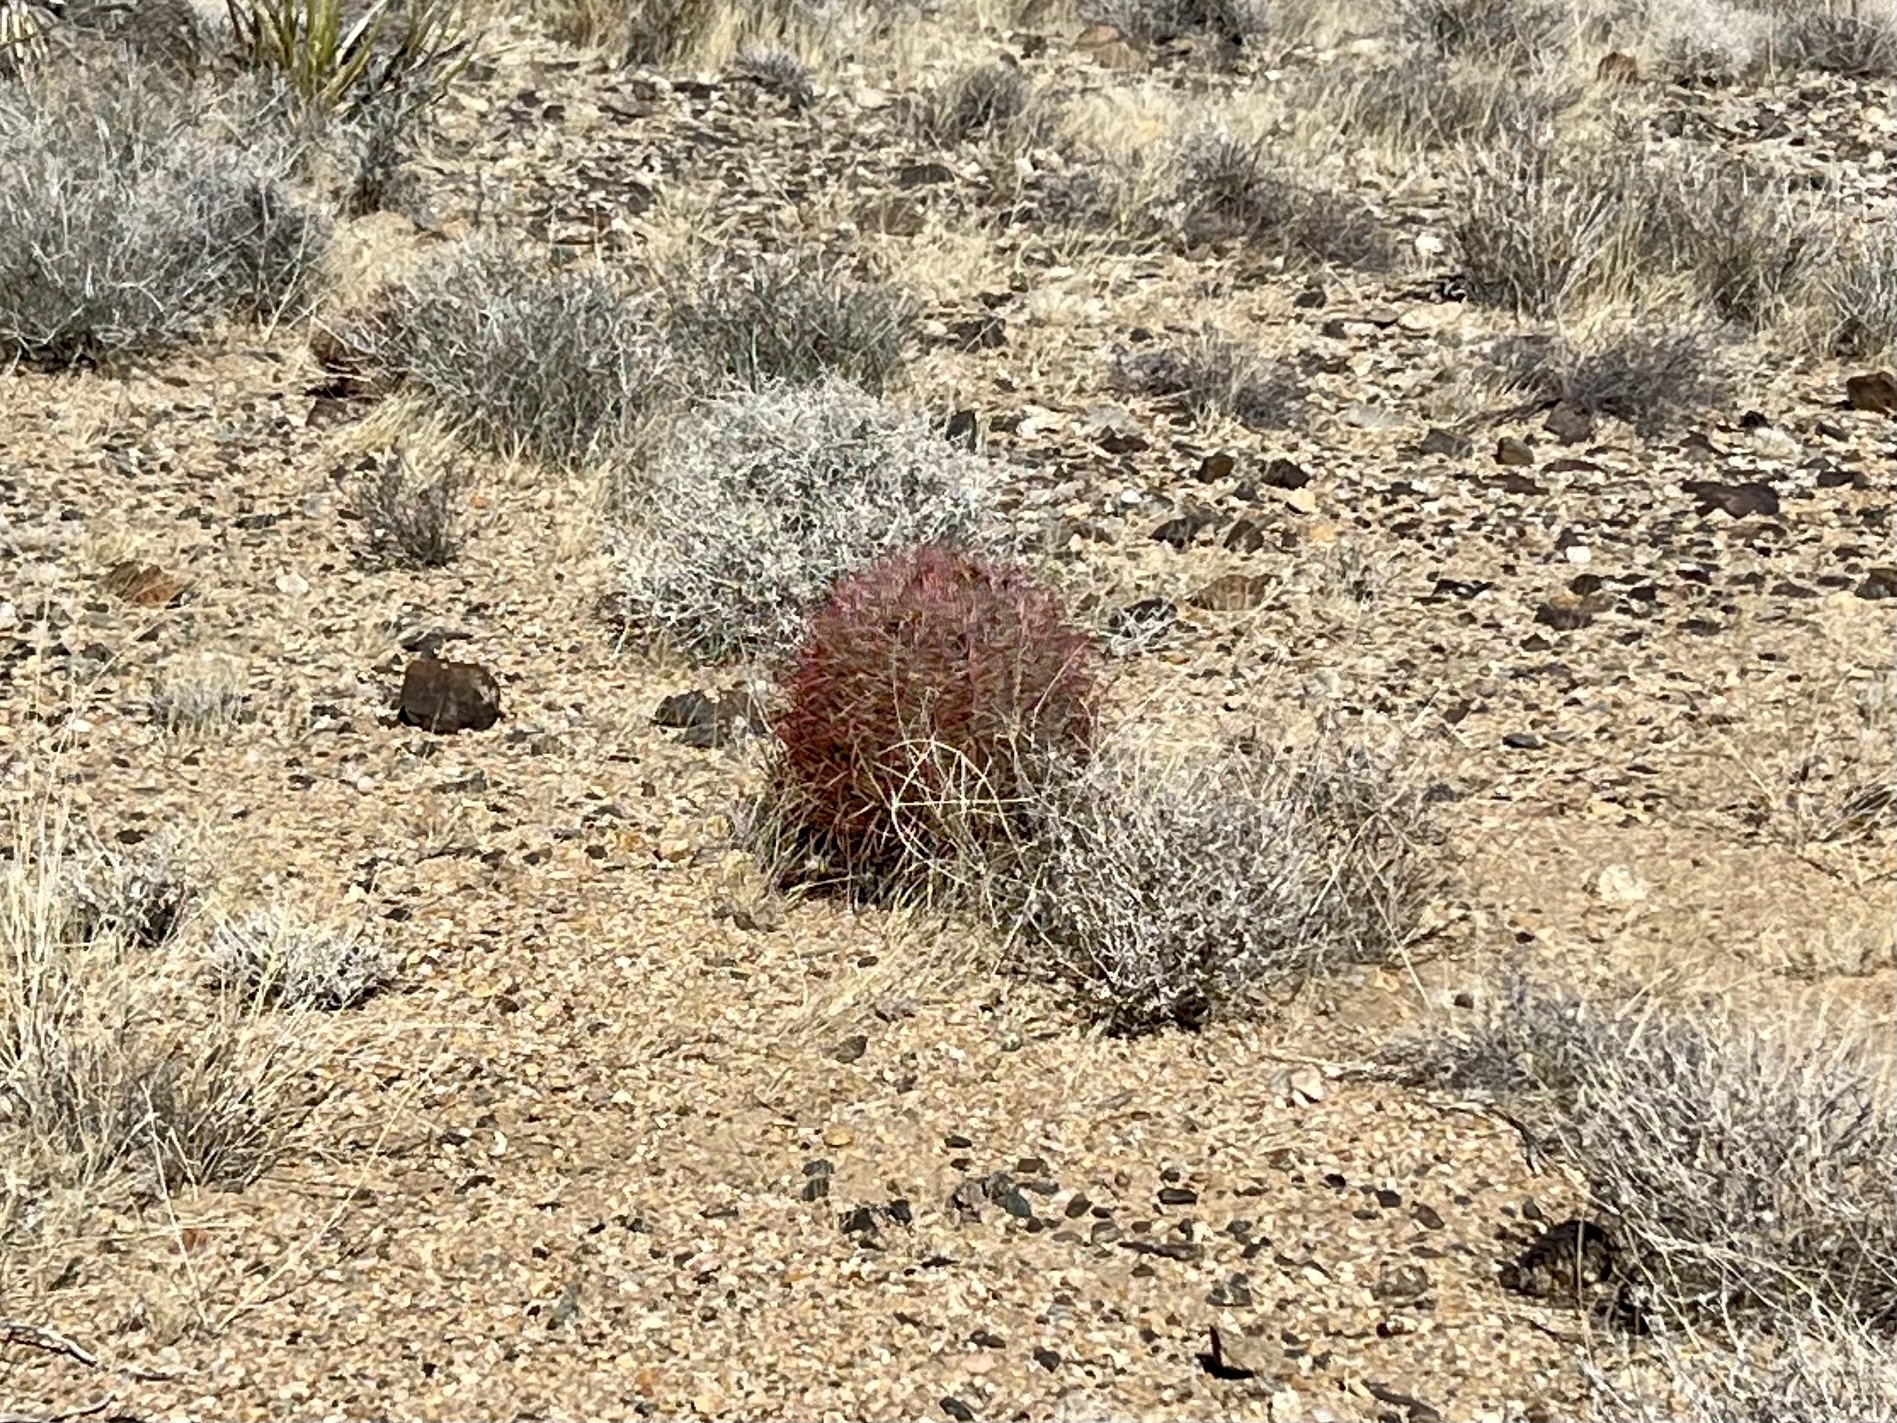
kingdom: Plantae
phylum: Tracheophyta
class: Magnoliopsida
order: Caryophyllales
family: Cactaceae
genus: Ferocactus
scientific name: Ferocactus cylindraceus
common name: California barrel cactus
